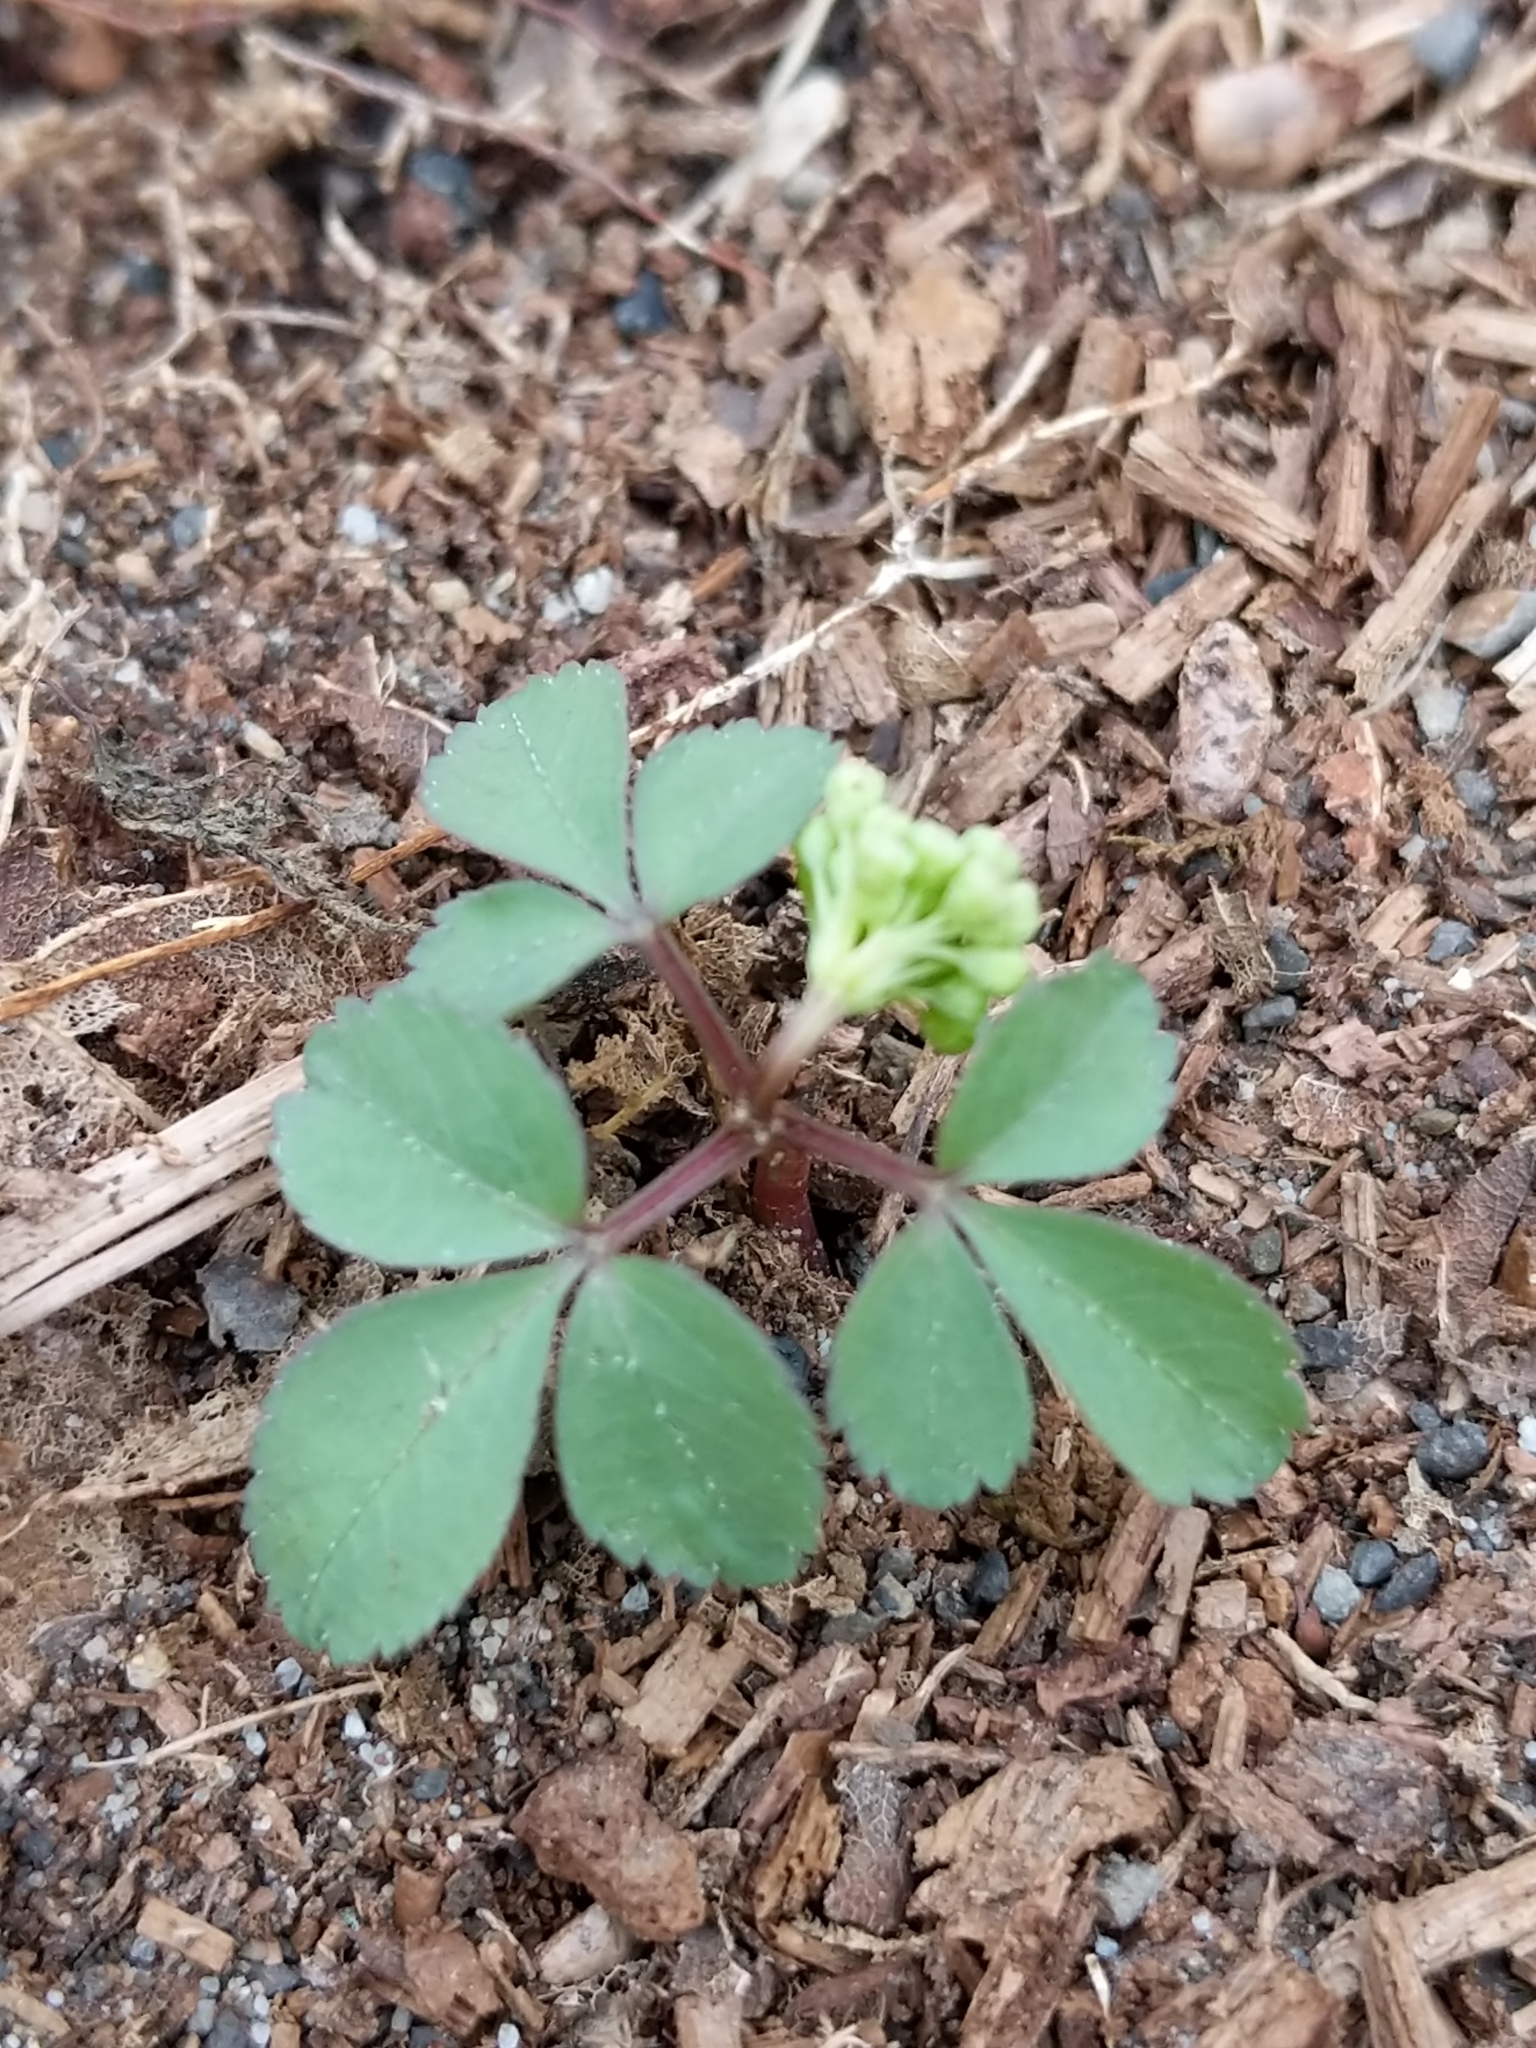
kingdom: Plantae
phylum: Tracheophyta
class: Magnoliopsida
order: Apiales
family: Araliaceae
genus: Panax
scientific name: Panax trifolius
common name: Dwarf ginseng
